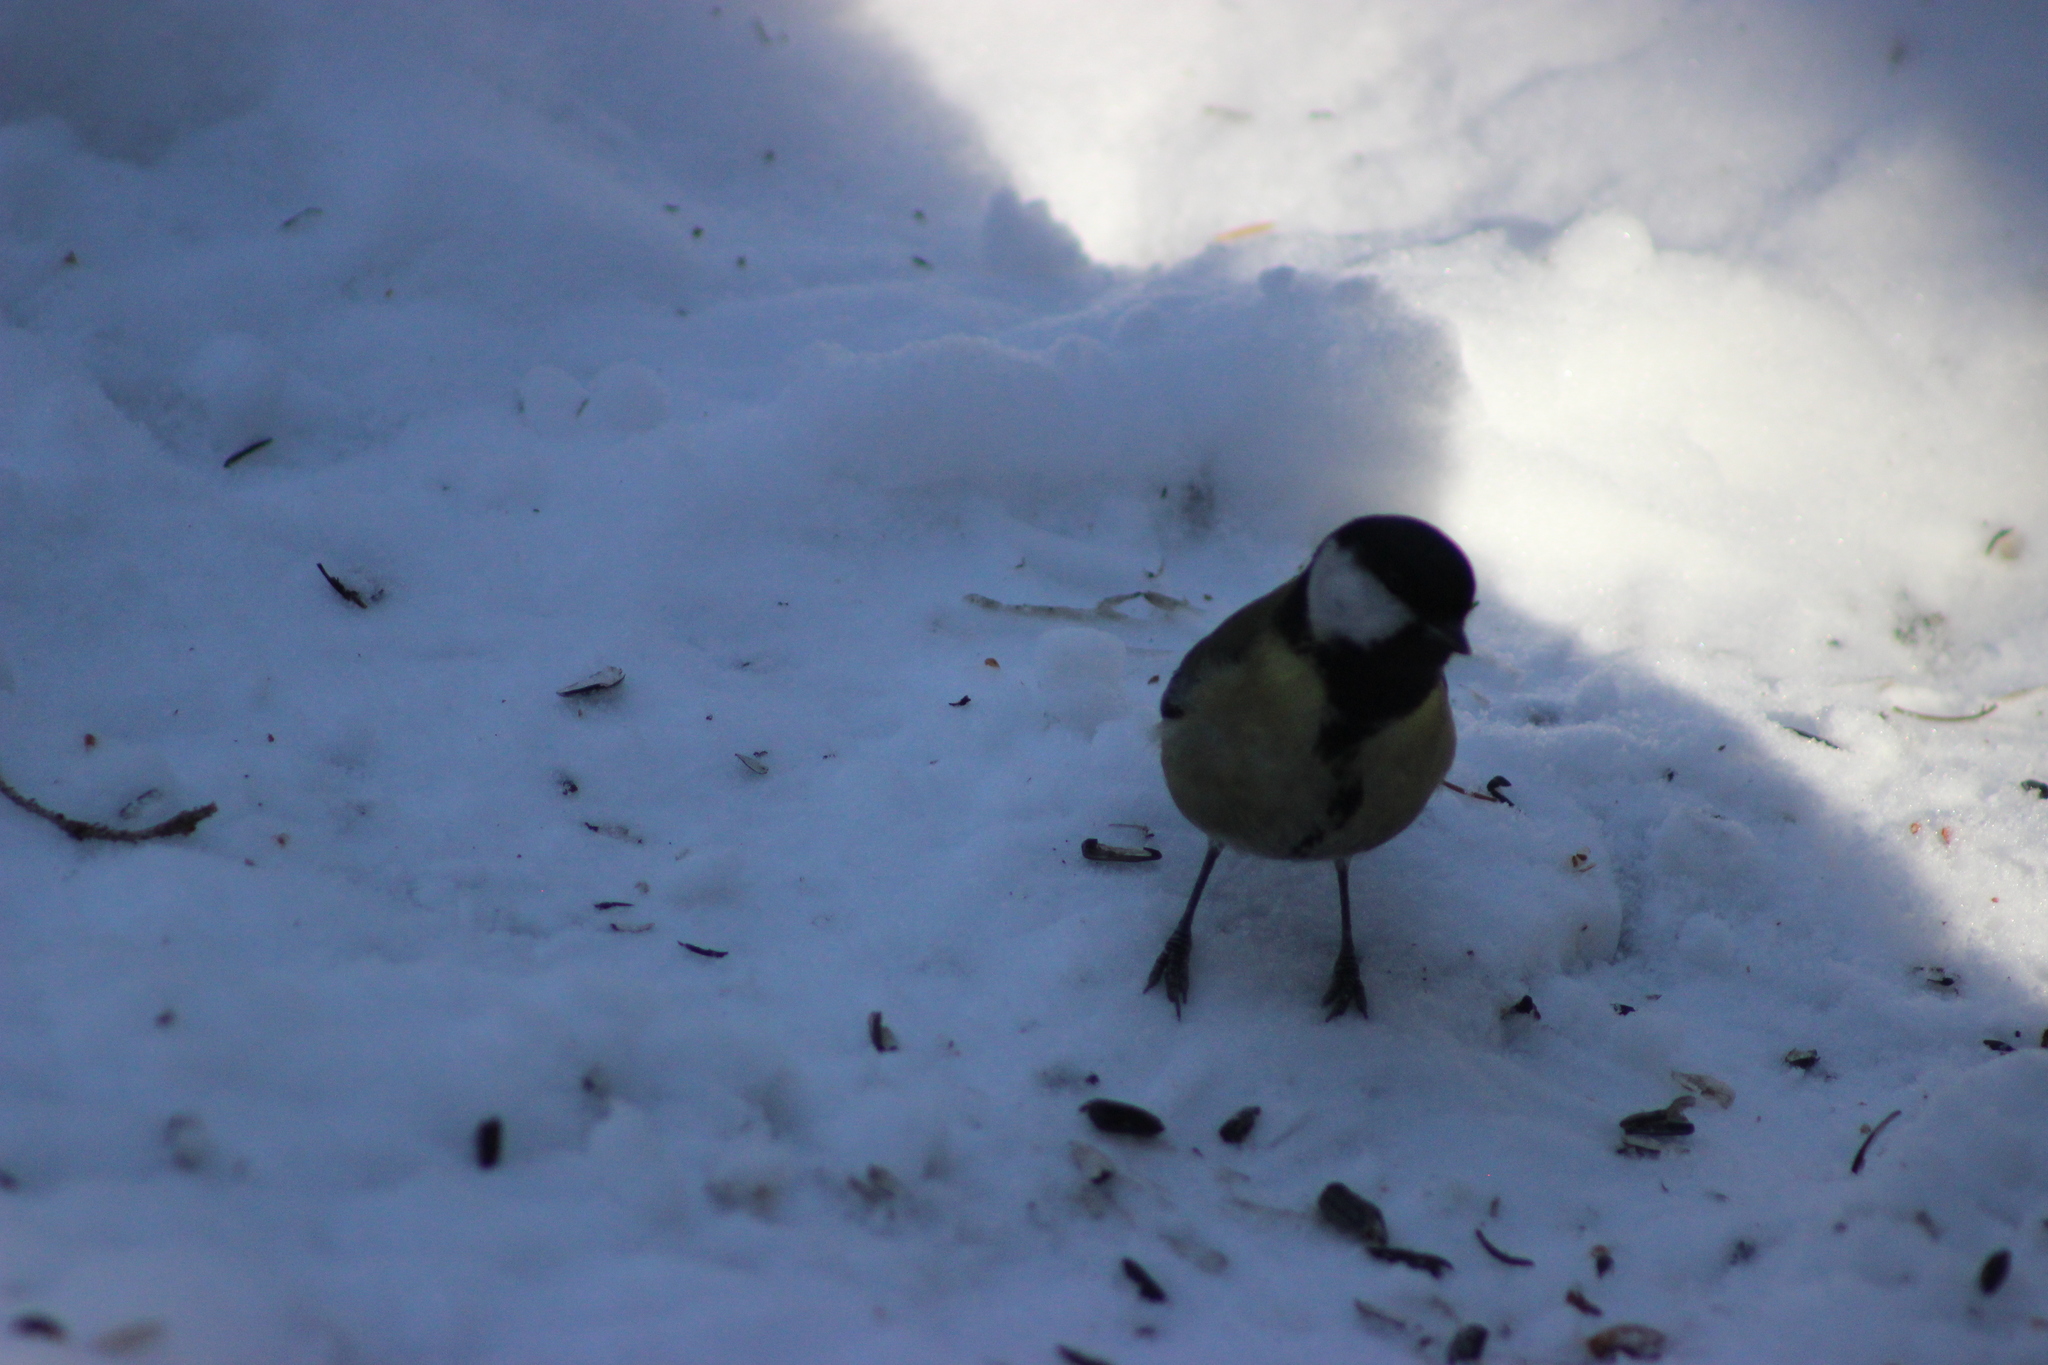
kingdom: Animalia
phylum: Chordata
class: Aves
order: Passeriformes
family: Paridae
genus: Parus
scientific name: Parus major
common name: Great tit
